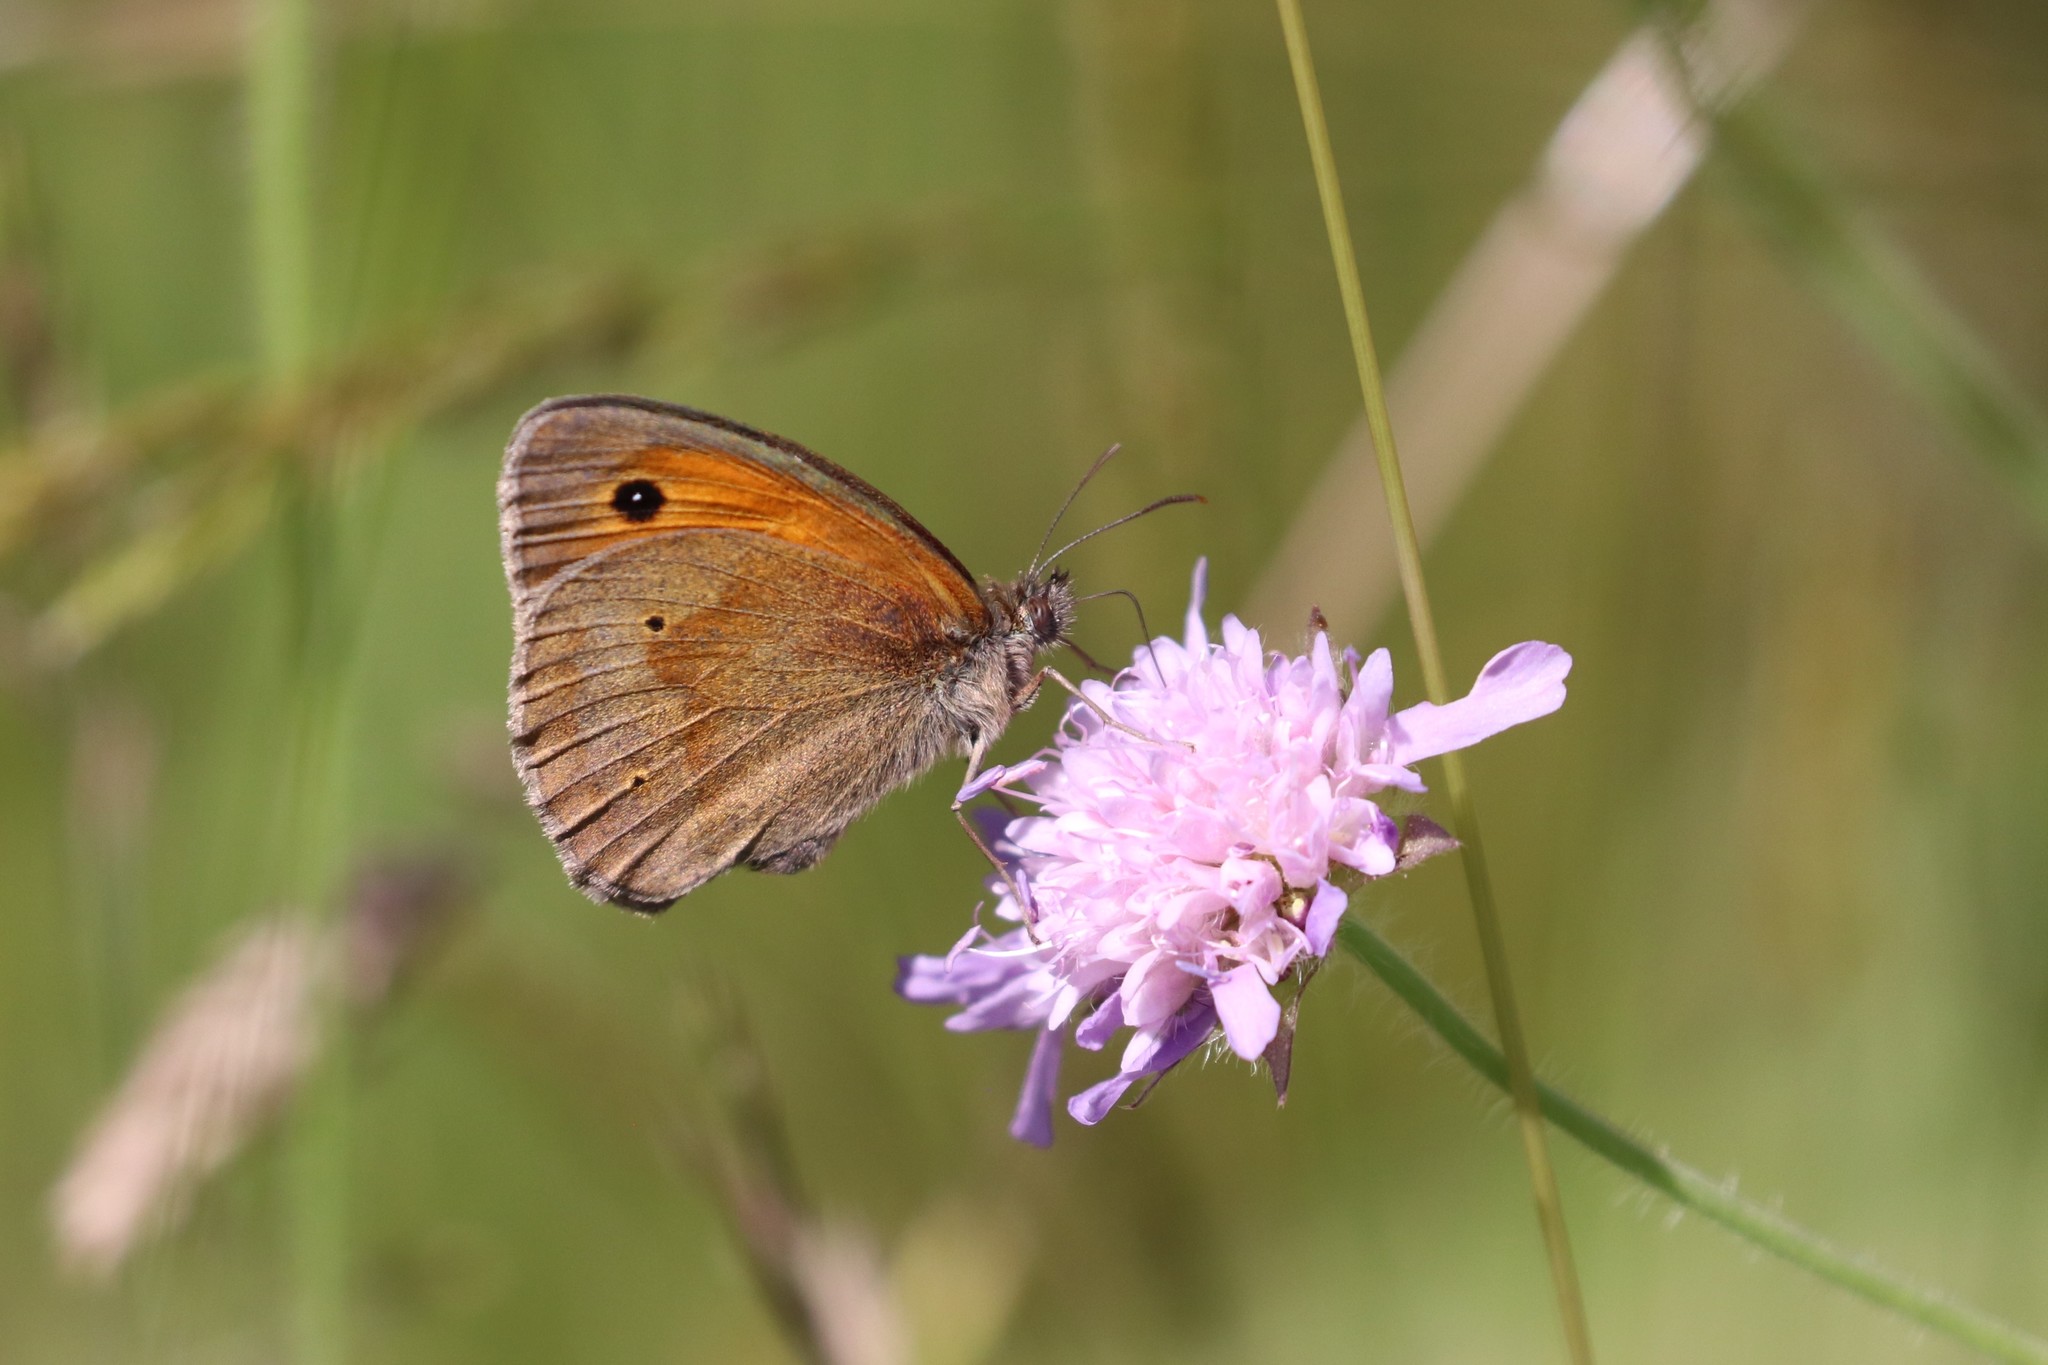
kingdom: Animalia
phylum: Arthropoda
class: Insecta
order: Lepidoptera
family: Nymphalidae
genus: Maniola
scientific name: Maniola jurtina
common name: Meadow brown
